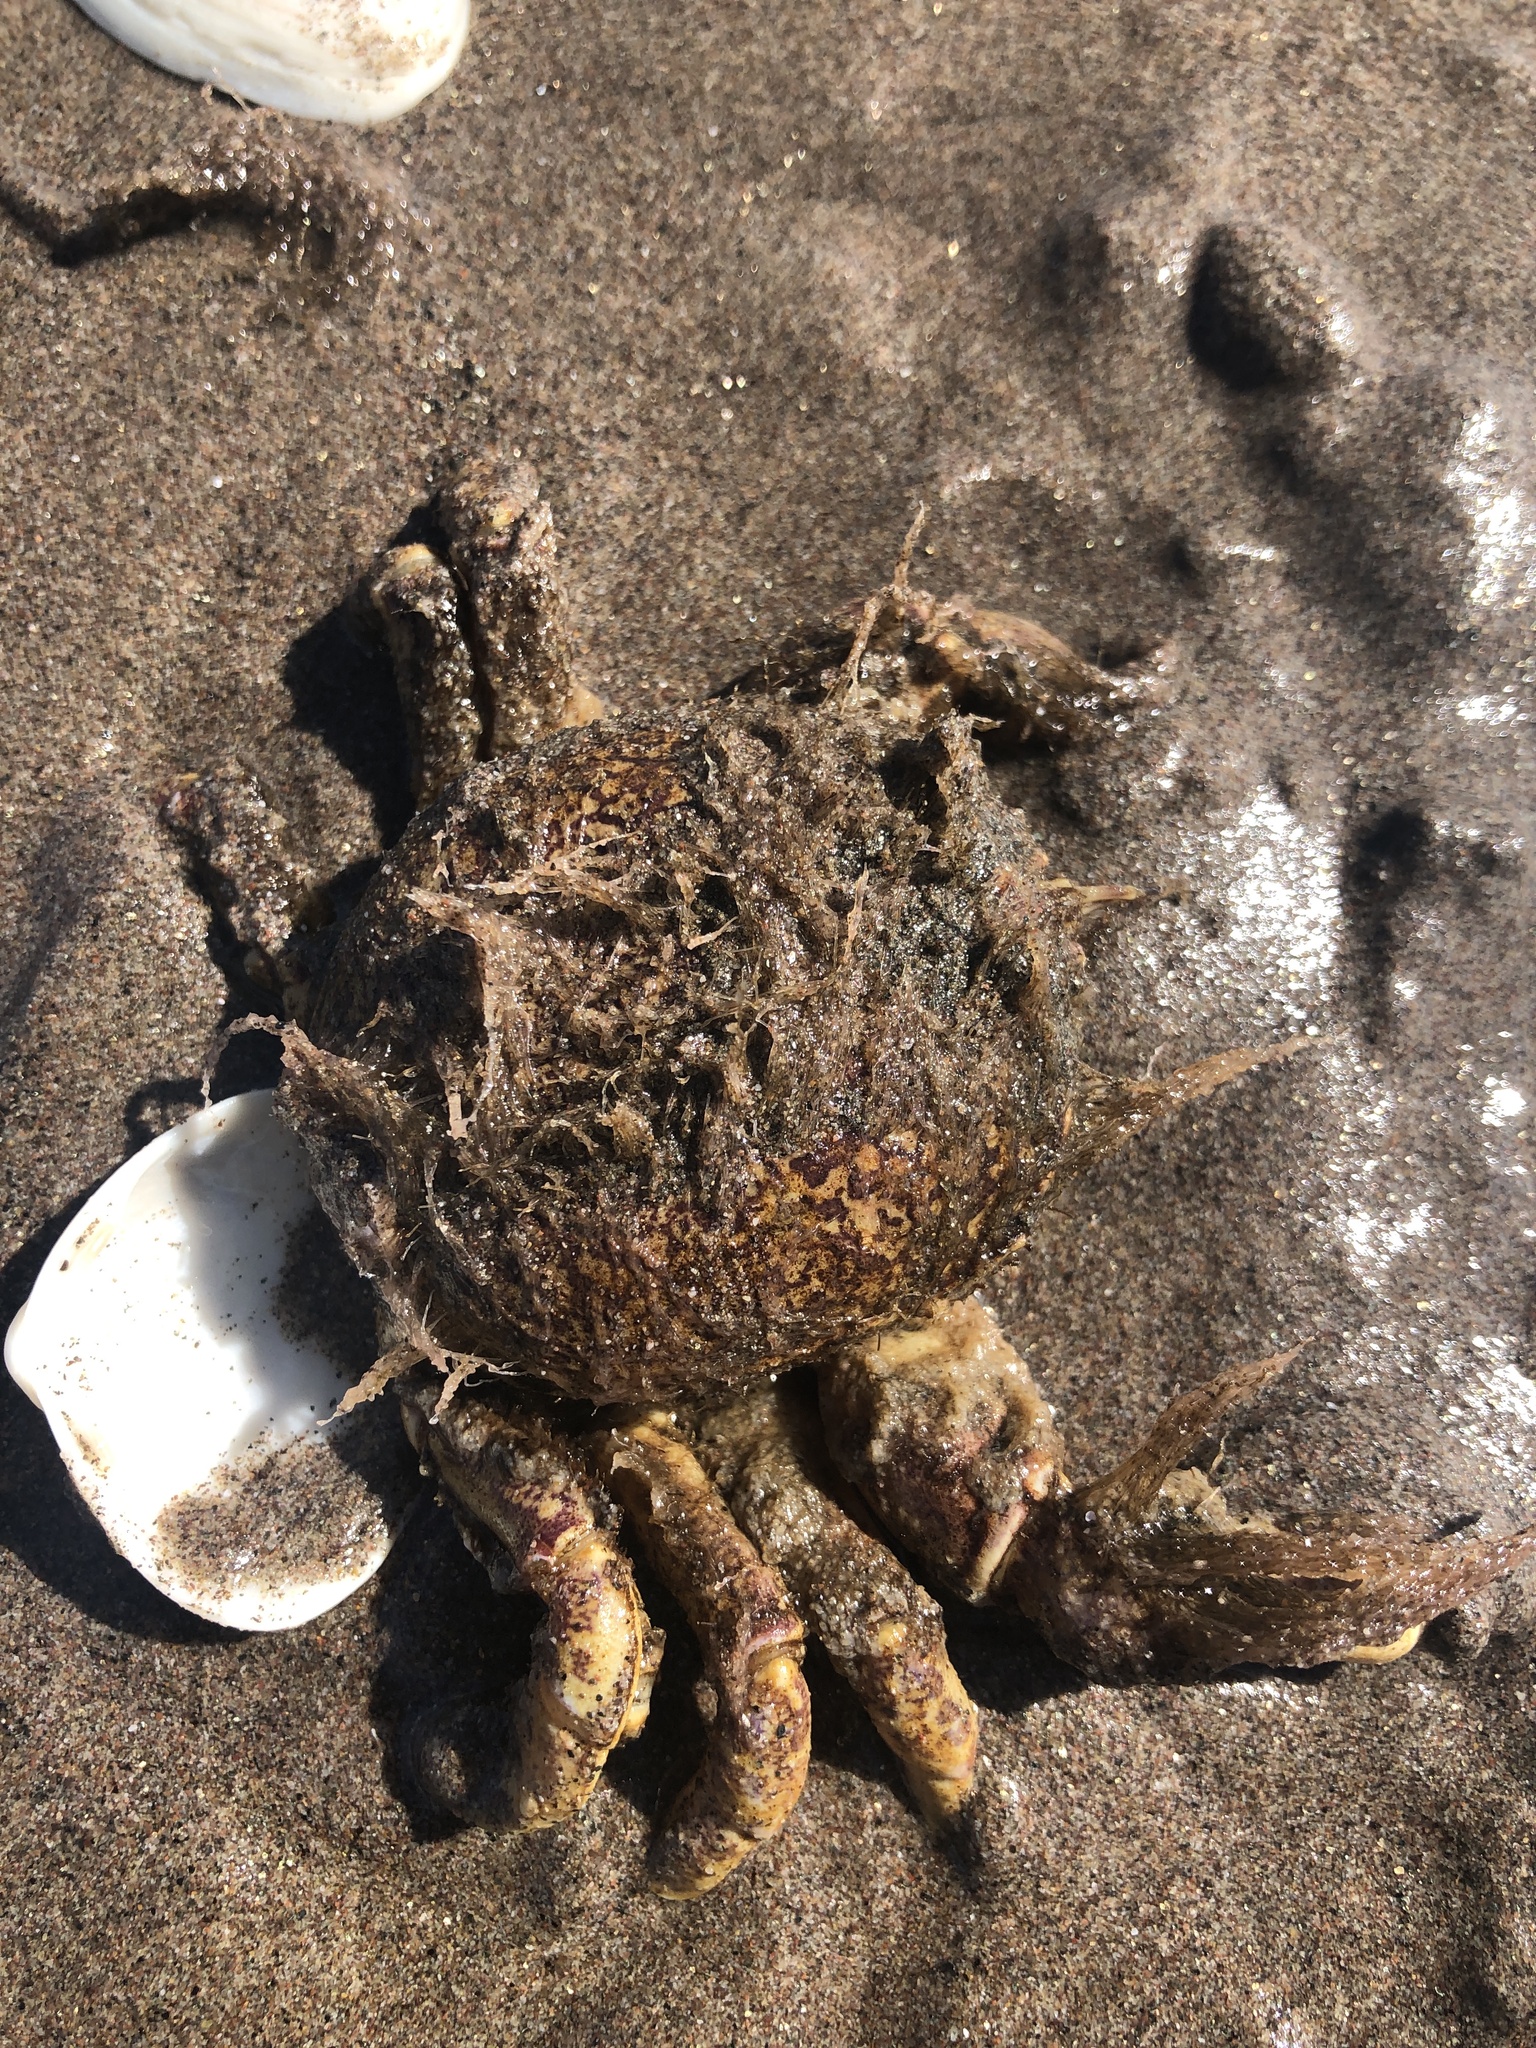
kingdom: Animalia
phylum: Arthropoda
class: Malacostraca
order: Decapoda
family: Belliidae
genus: Bellia
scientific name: Bellia picta
